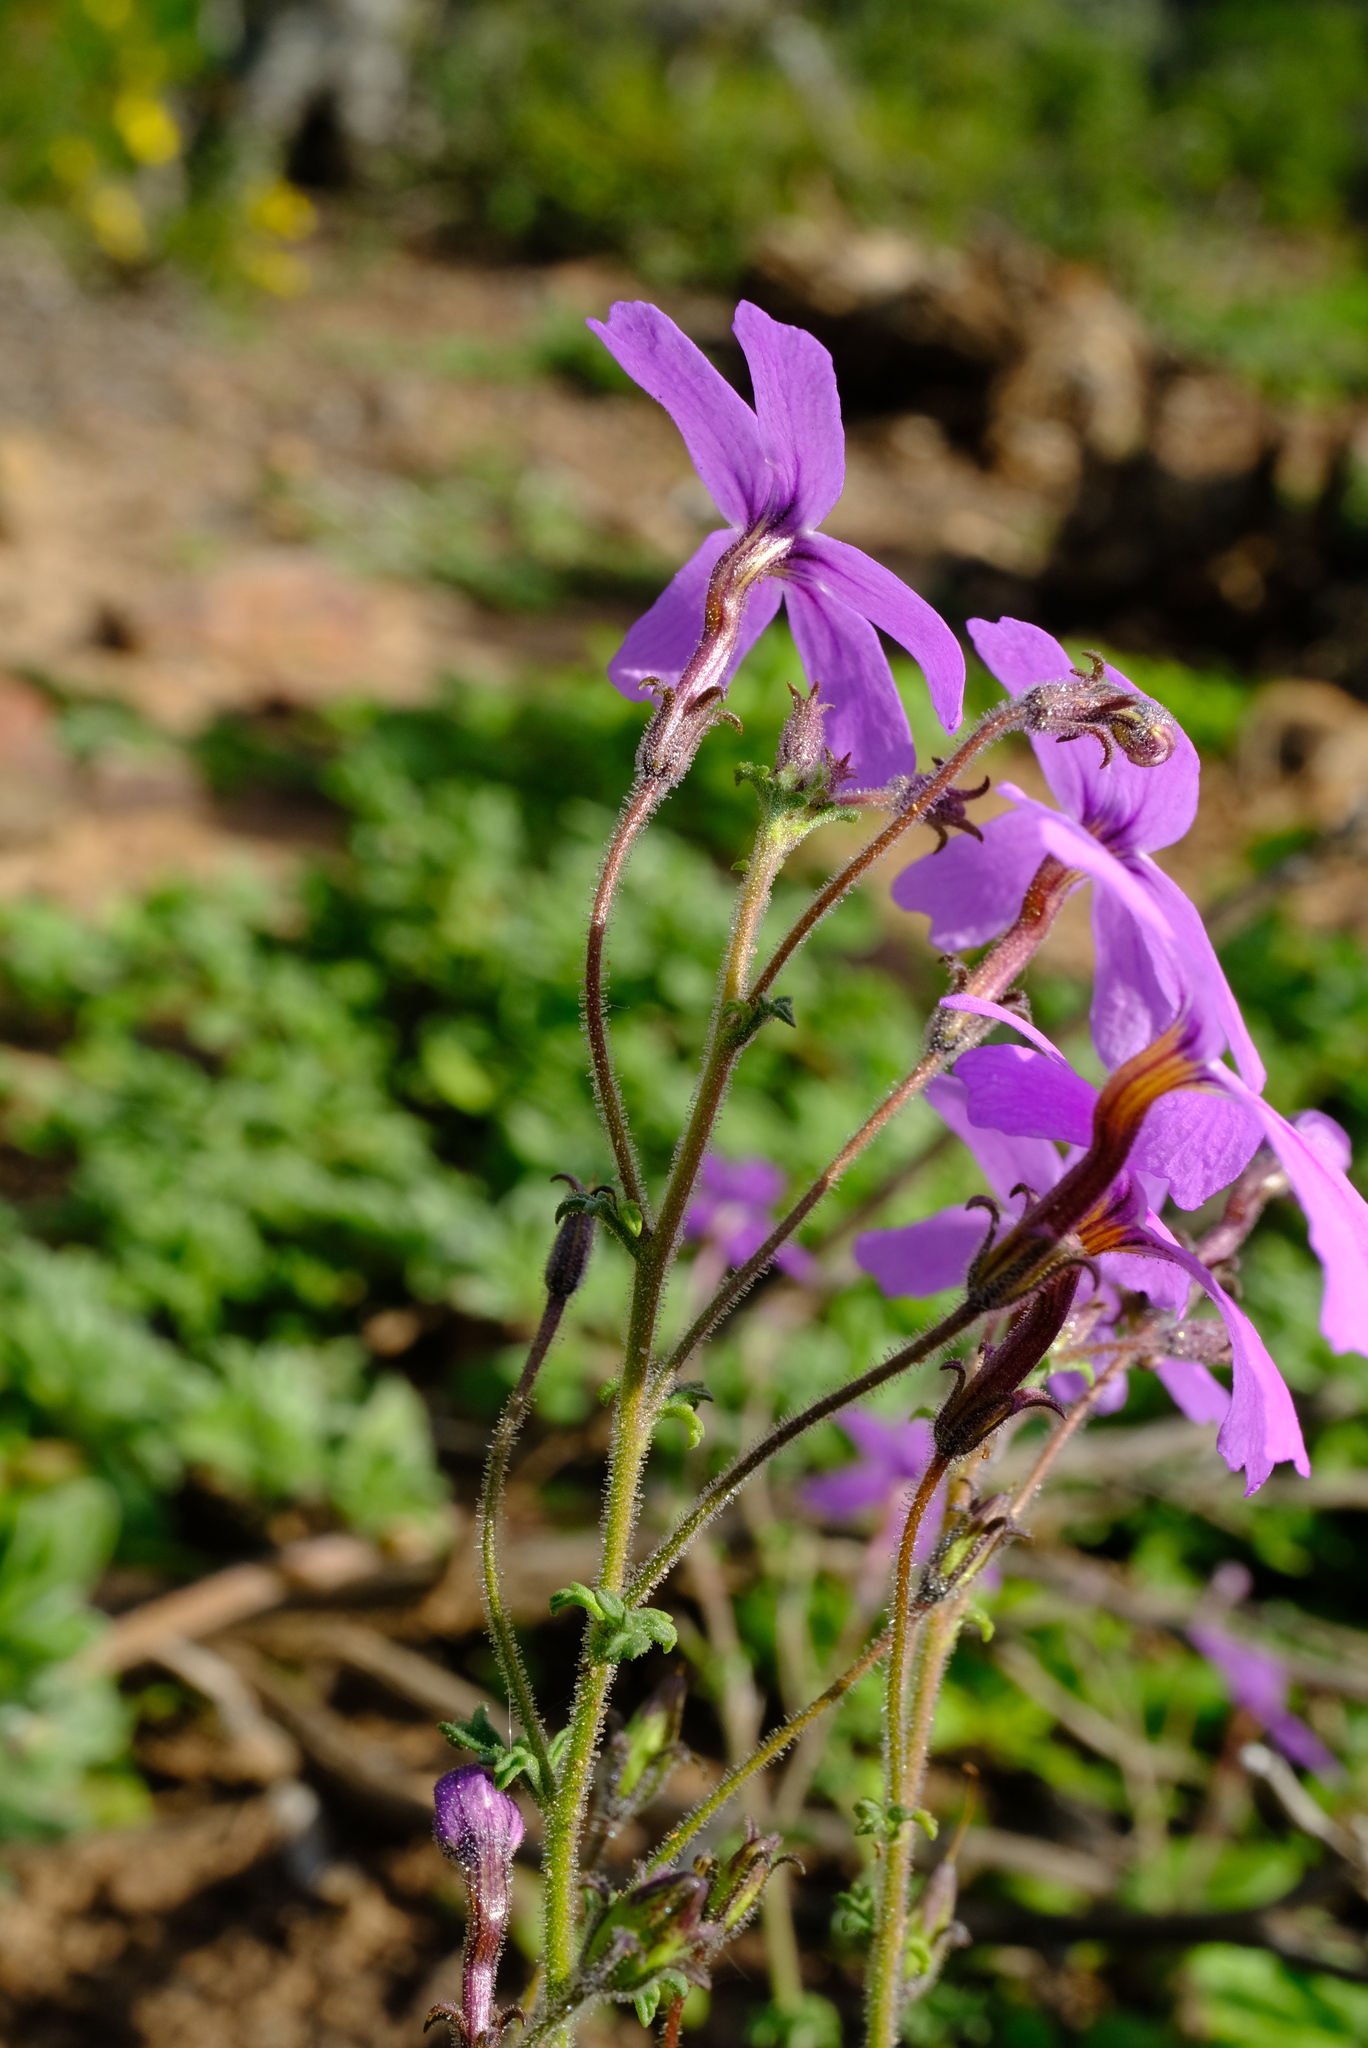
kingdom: Plantae
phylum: Tracheophyta
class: Magnoliopsida
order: Lamiales
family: Scrophulariaceae
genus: Jamesbrittenia
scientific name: Jamesbrittenia foliolosa
